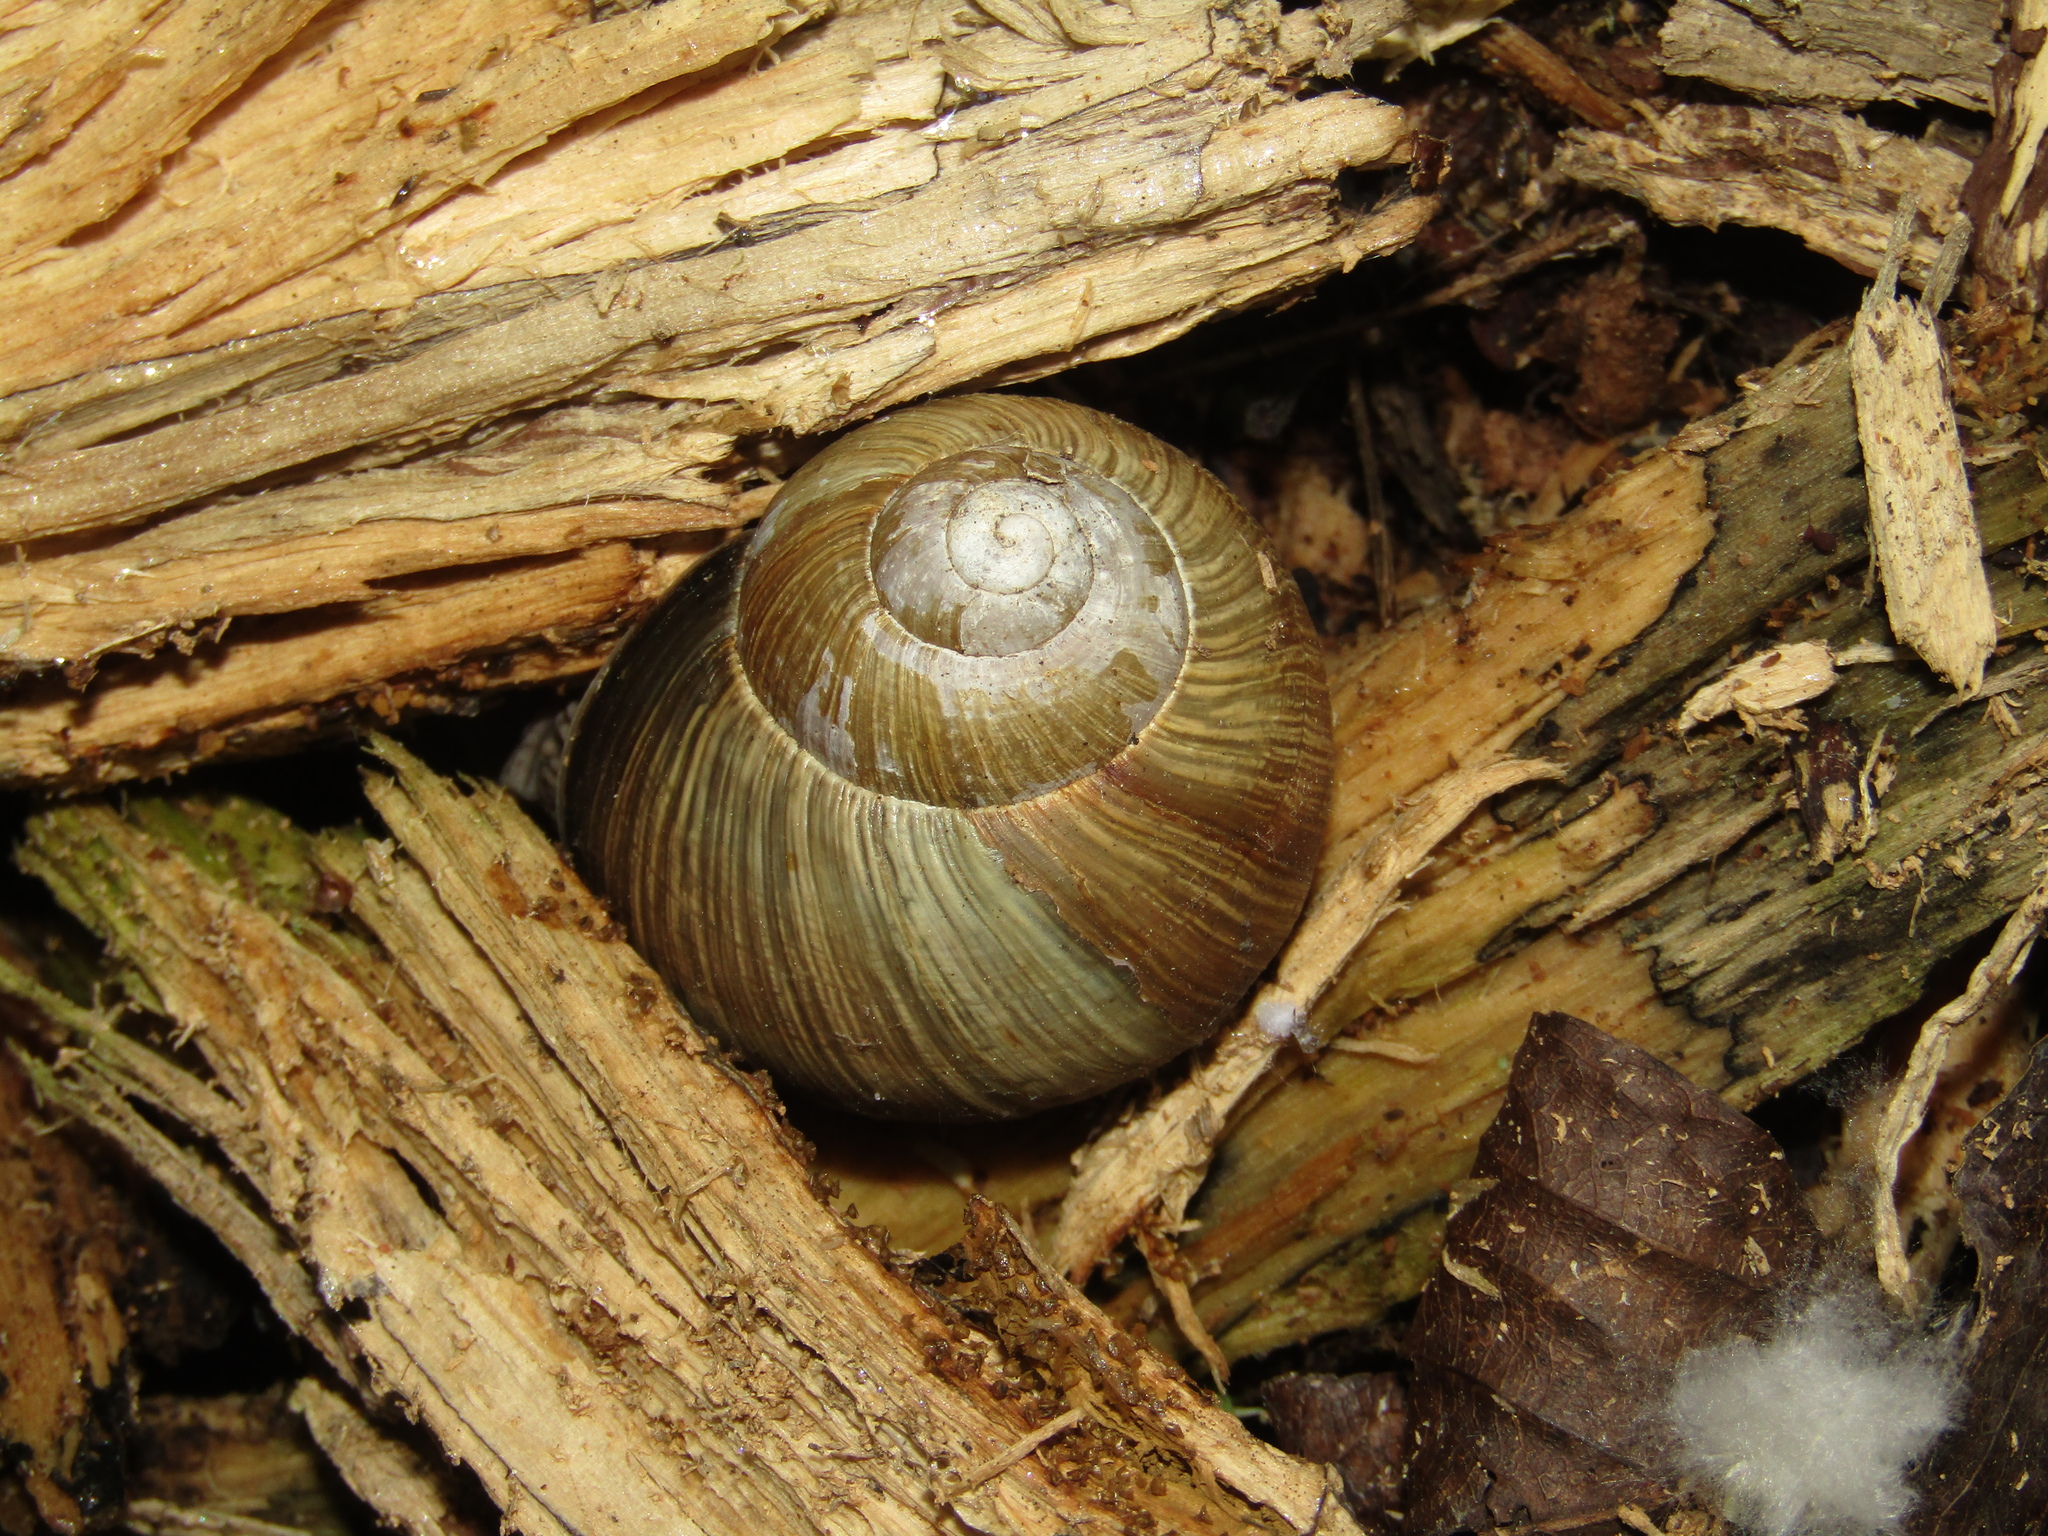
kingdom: Animalia
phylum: Mollusca
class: Gastropoda
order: Stylommatophora
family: Helicidae
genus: Helix
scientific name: Helix pomatia
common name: Roman snail
